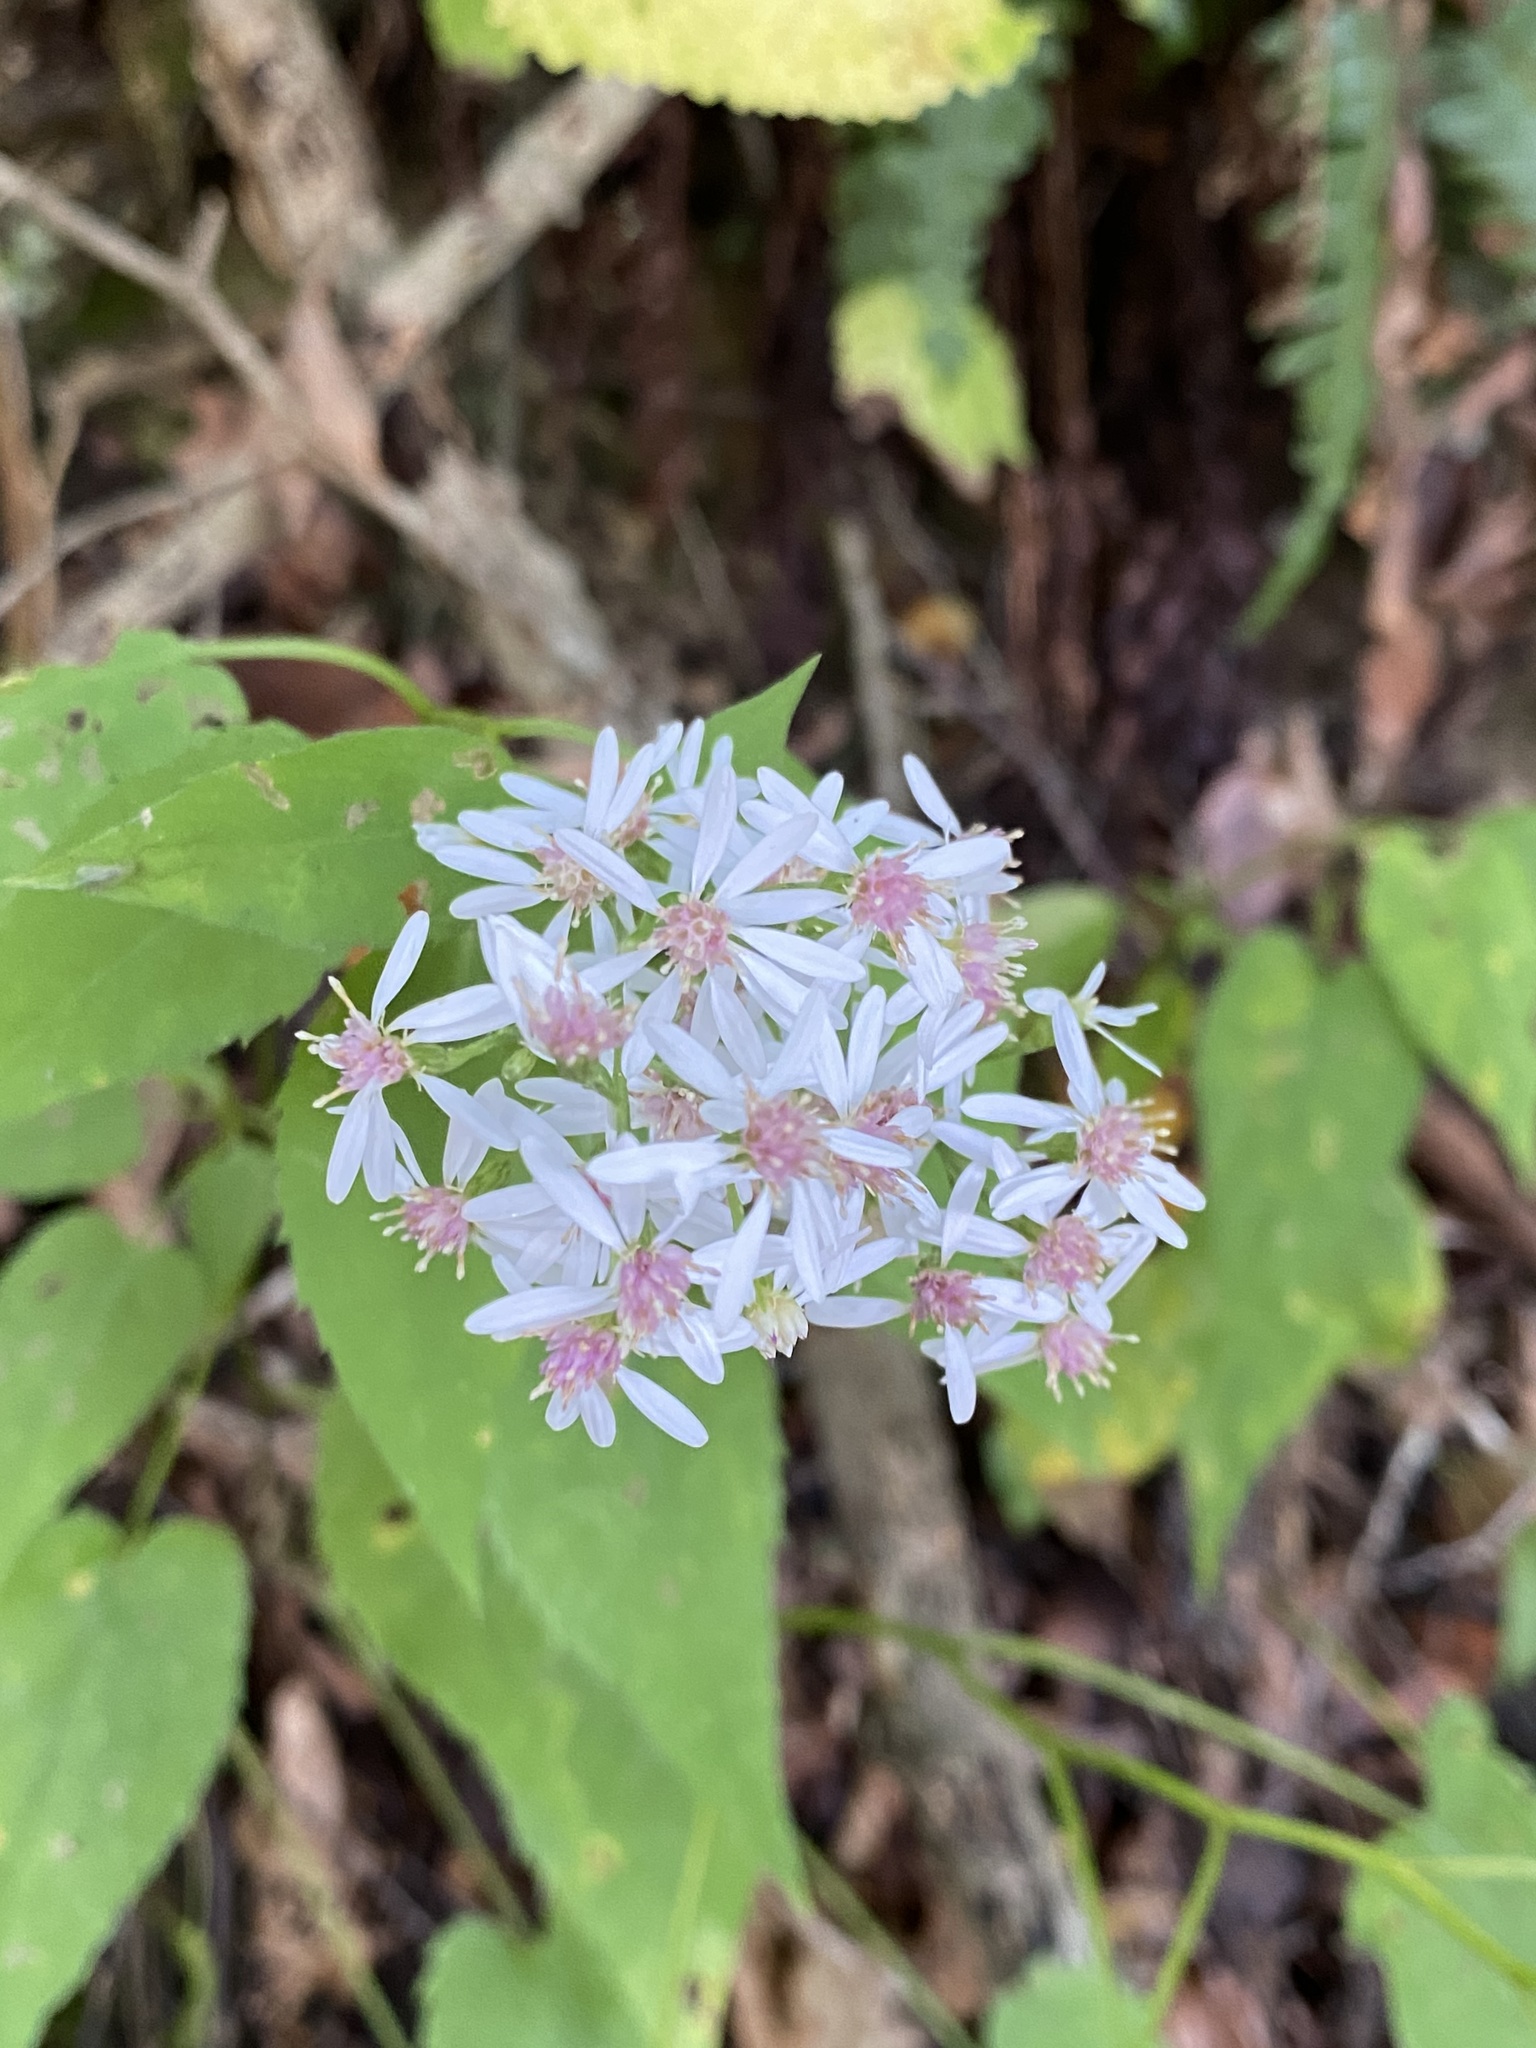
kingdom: Plantae
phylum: Tracheophyta
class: Magnoliopsida
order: Asterales
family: Asteraceae
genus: Symphyotrichum
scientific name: Symphyotrichum cordifolium
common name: Beeweed
